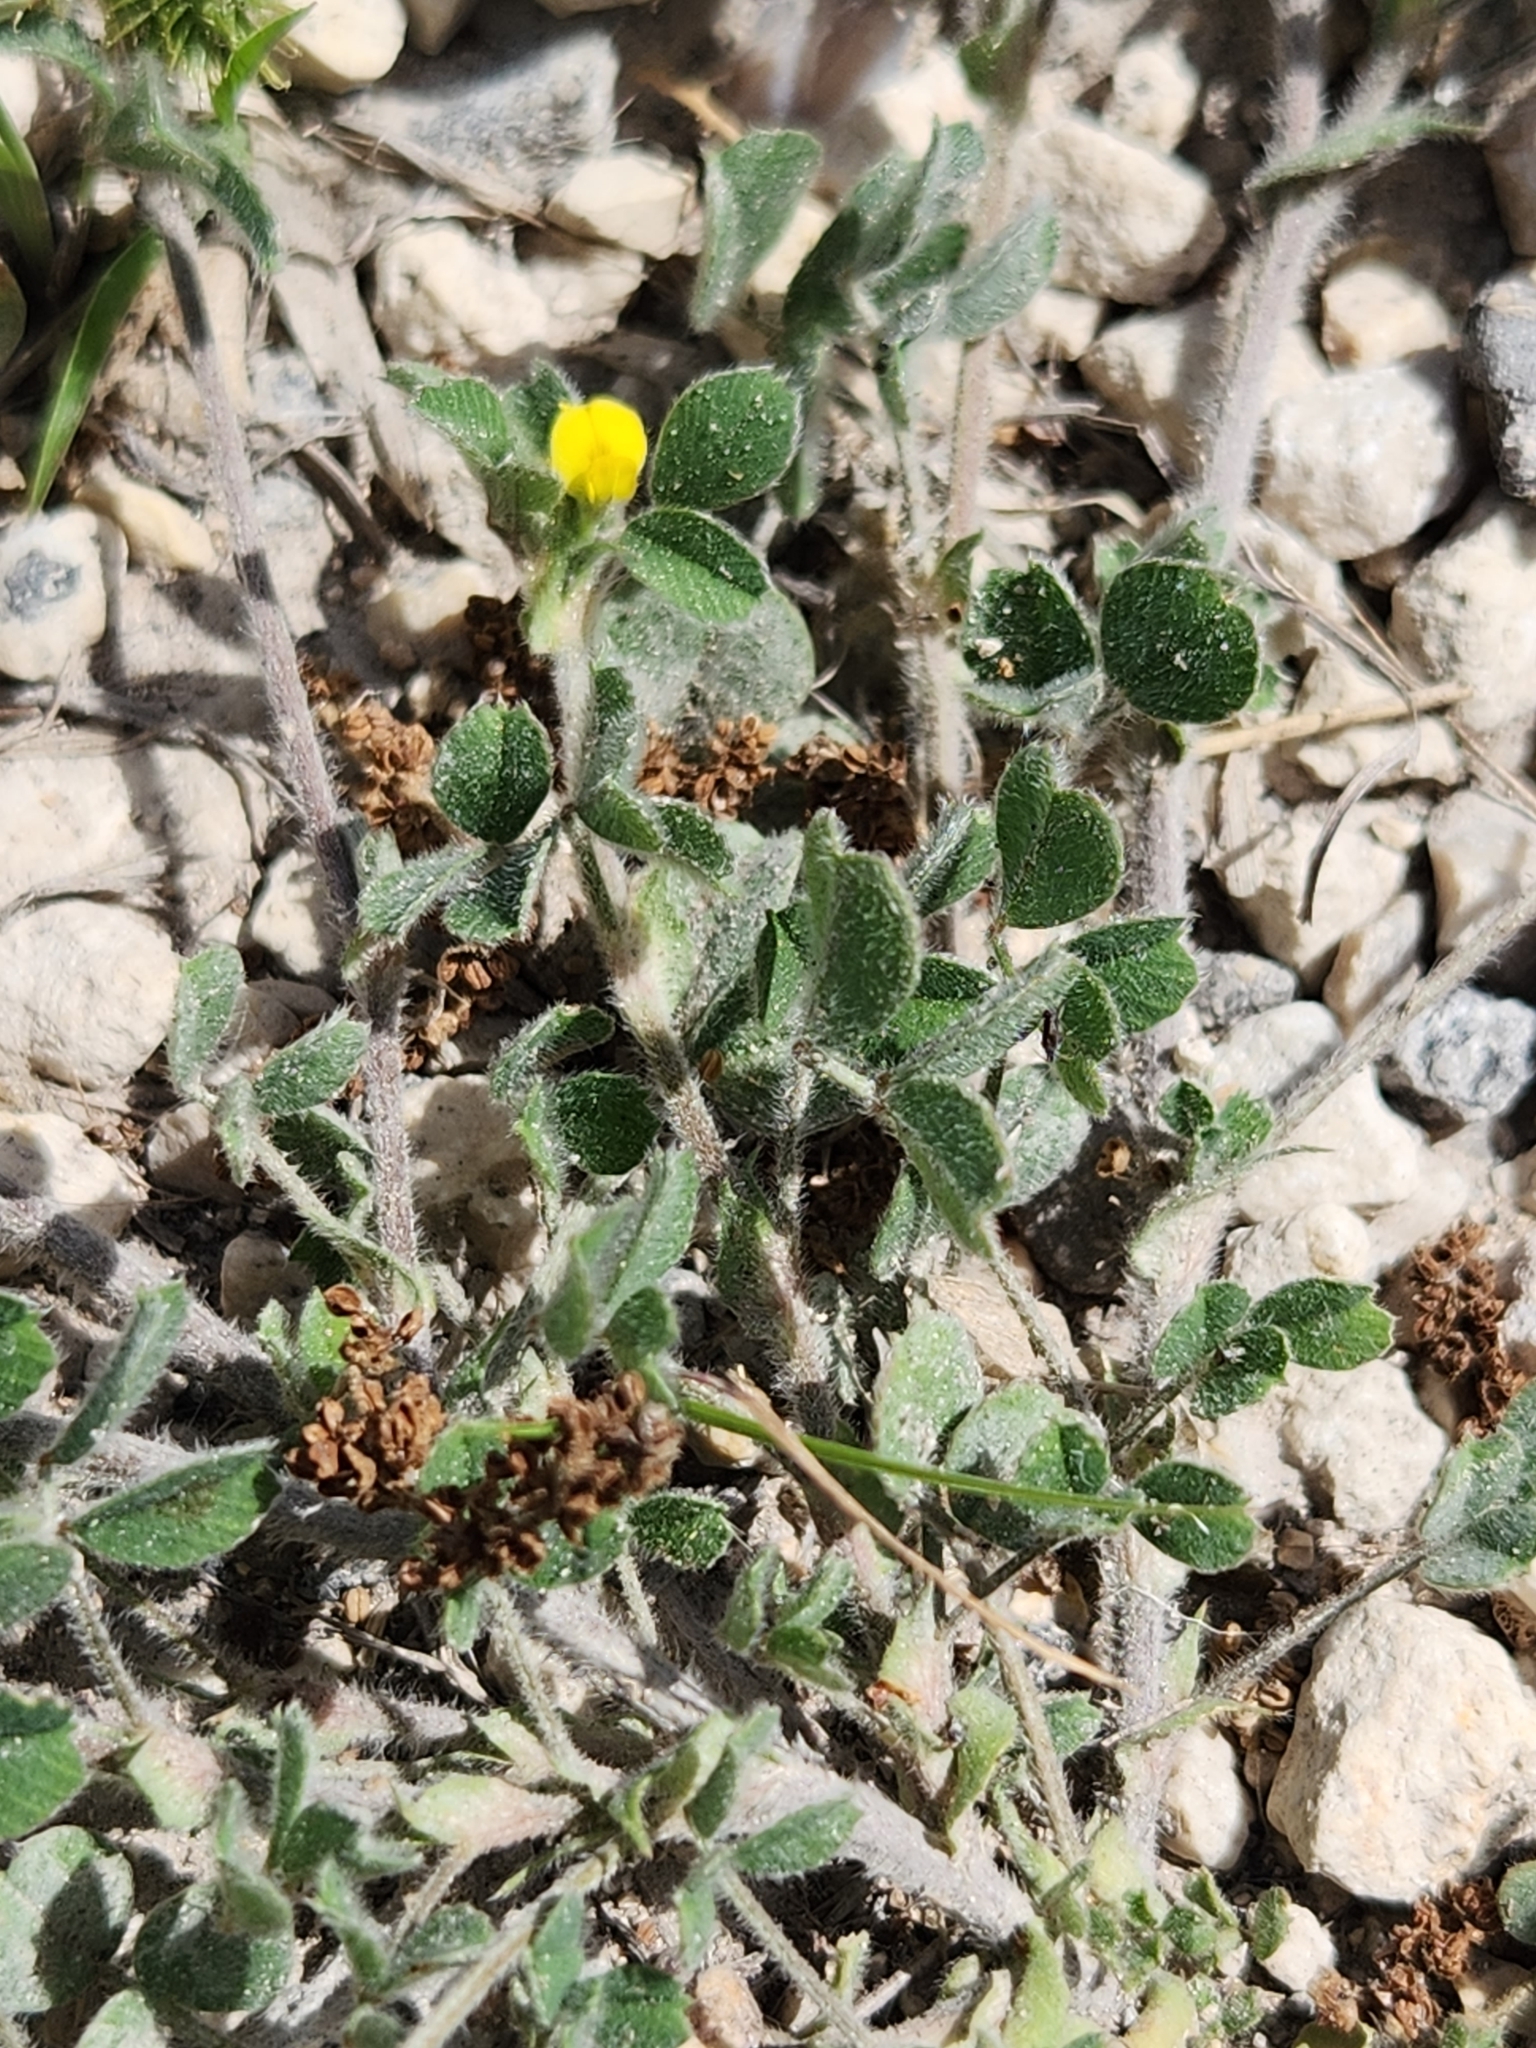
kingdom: Plantae
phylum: Tracheophyta
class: Magnoliopsida
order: Fabales
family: Fabaceae
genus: Medicago
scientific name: Medicago minima
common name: Little bur-clover
